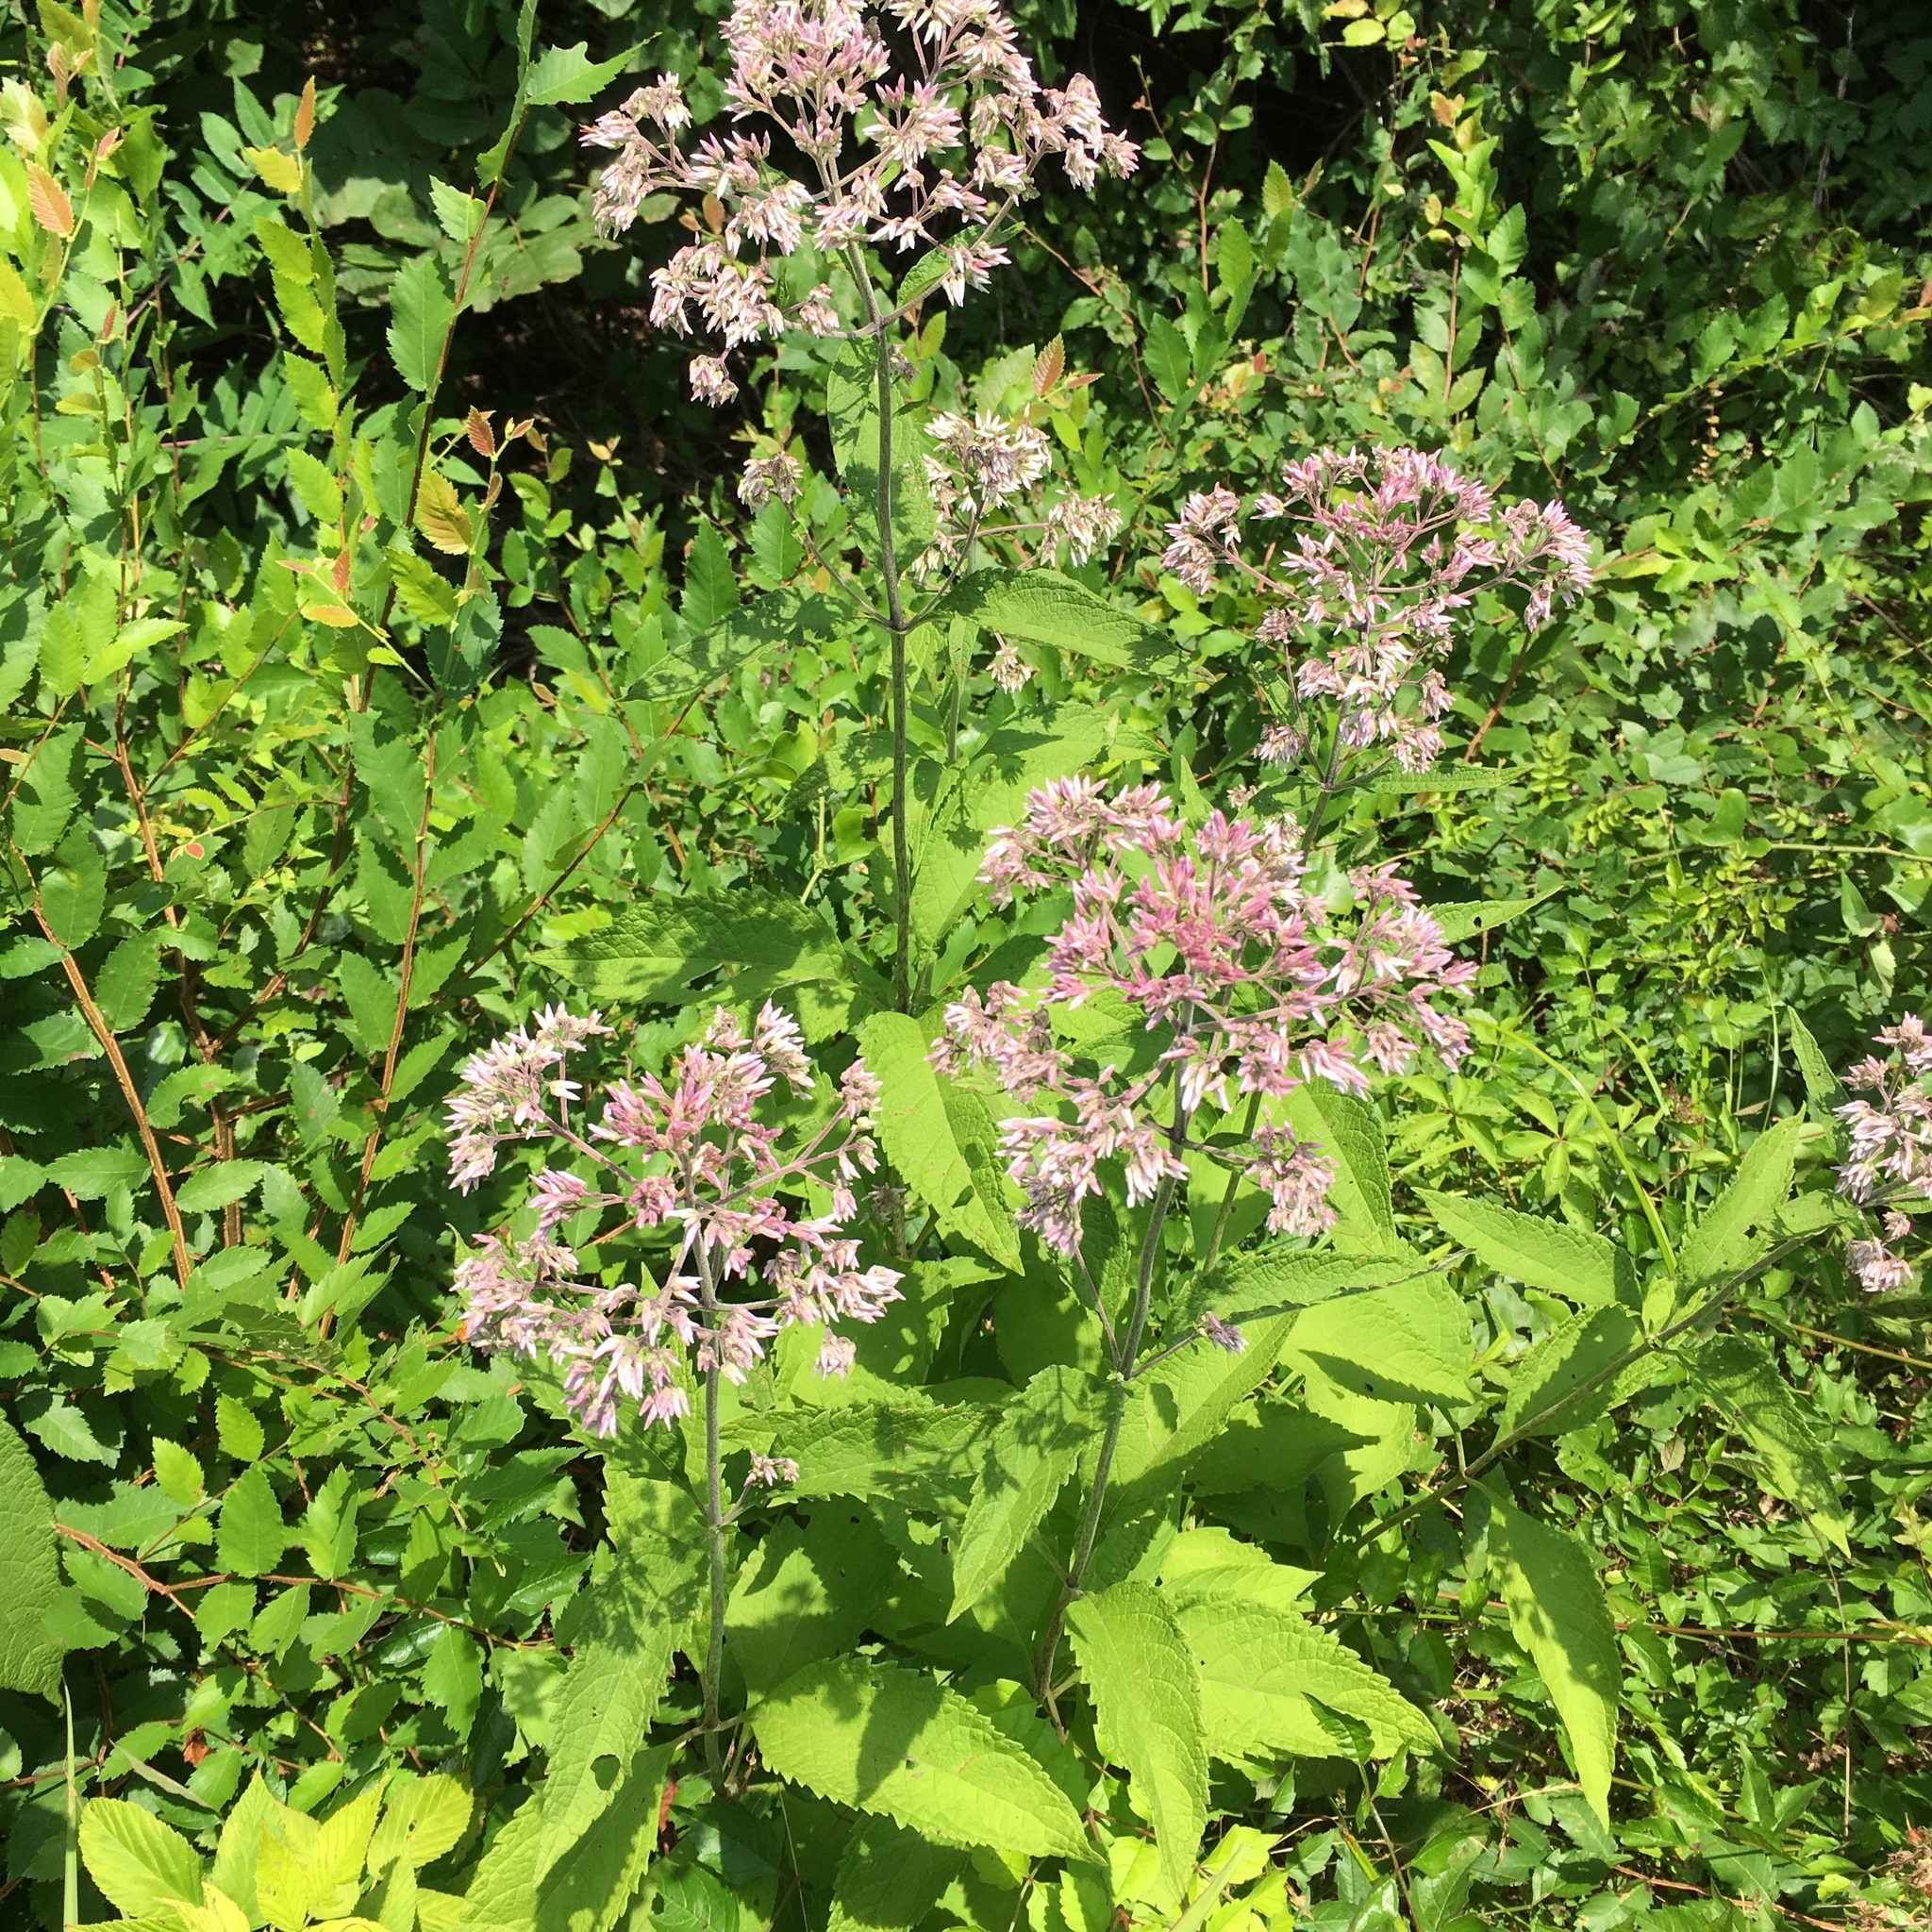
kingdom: Plantae
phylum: Tracheophyta
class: Magnoliopsida
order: Asterales
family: Asteraceae
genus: Eutrochium
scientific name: Eutrochium purpureum
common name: Gravelroot
